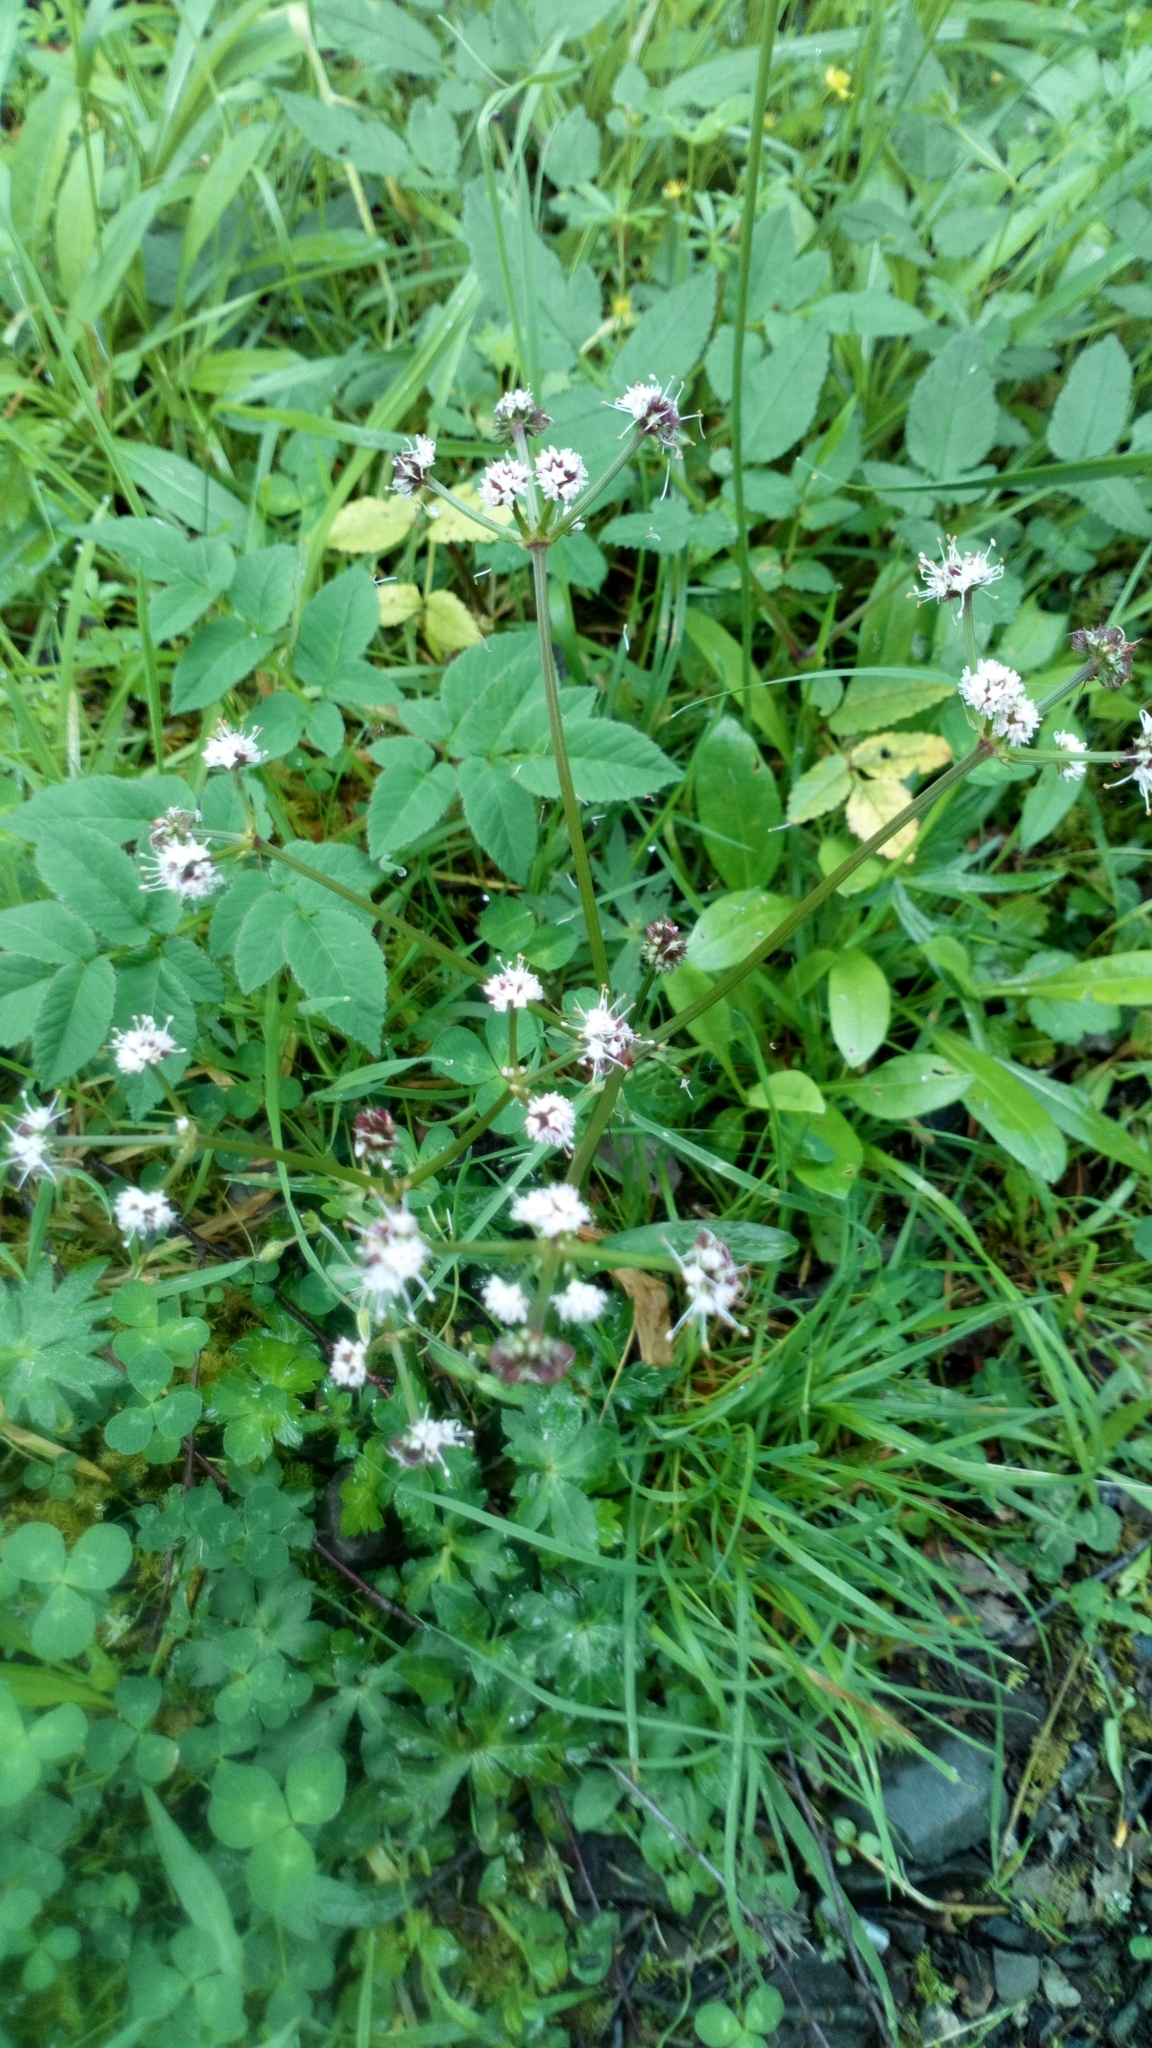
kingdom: Plantae
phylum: Tracheophyta
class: Magnoliopsida
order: Apiales
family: Apiaceae
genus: Sanicula
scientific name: Sanicula europaea
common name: Sanicle
